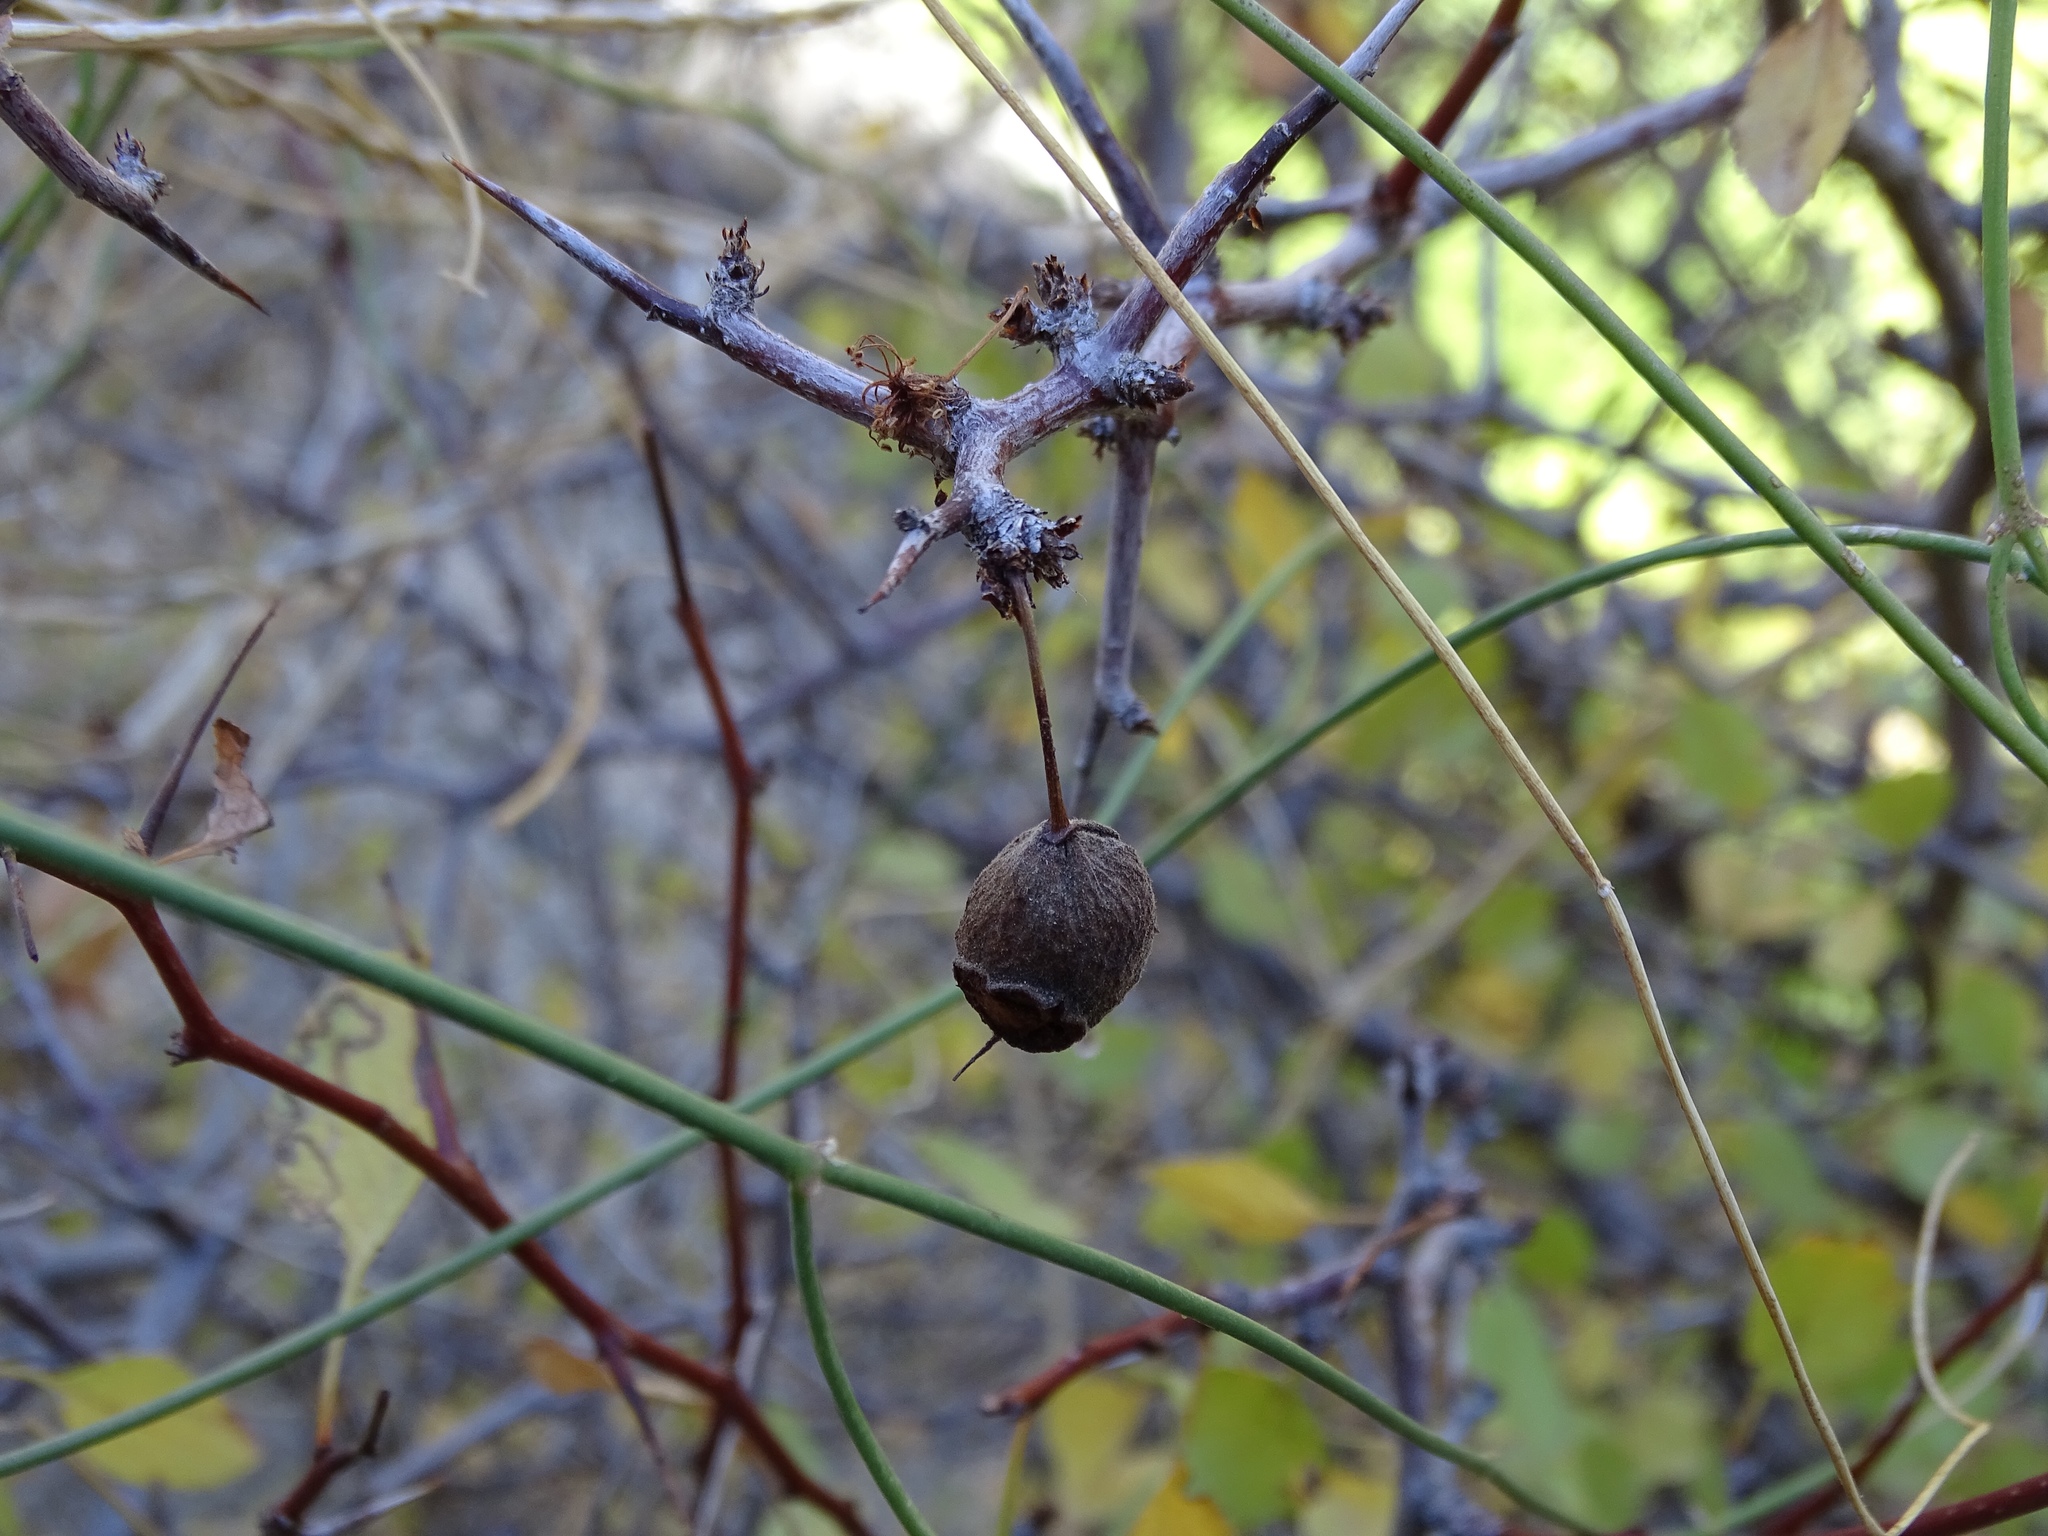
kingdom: Plantae
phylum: Tracheophyta
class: Magnoliopsida
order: Rosales
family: Rosaceae
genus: Prunus
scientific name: Prunus fremontii
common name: Desert apricot
